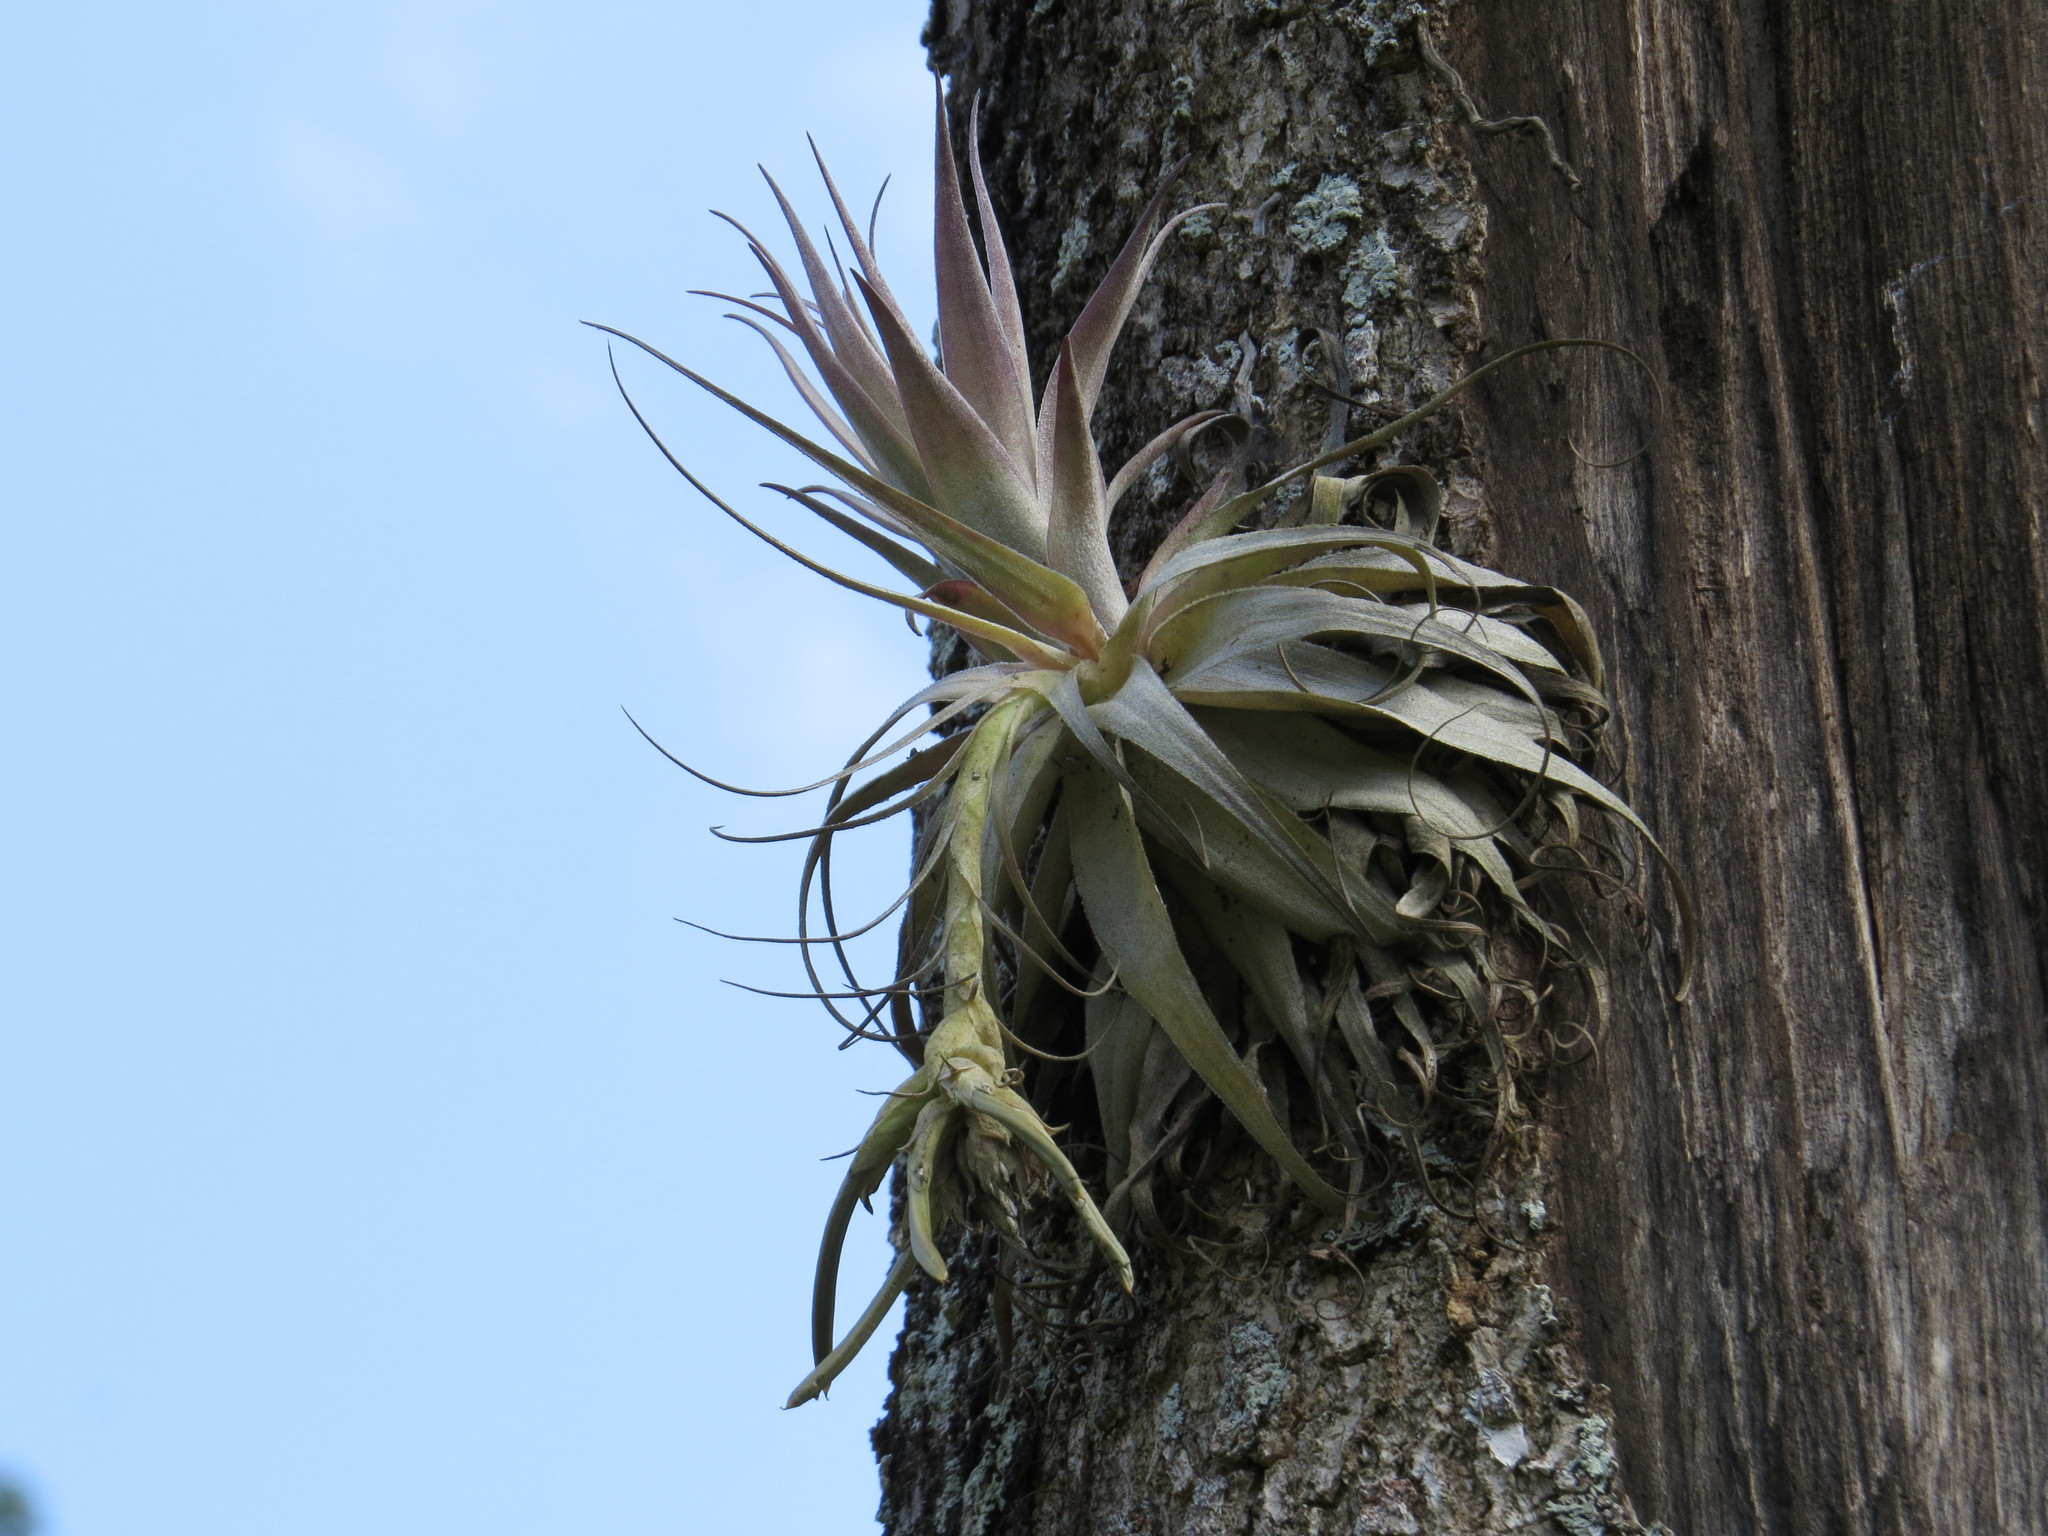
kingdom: Plantae
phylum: Tracheophyta
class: Liliopsida
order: Poales
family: Bromeliaceae
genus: Tillandsia
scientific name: Tillandsia gardneri
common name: Airplant
